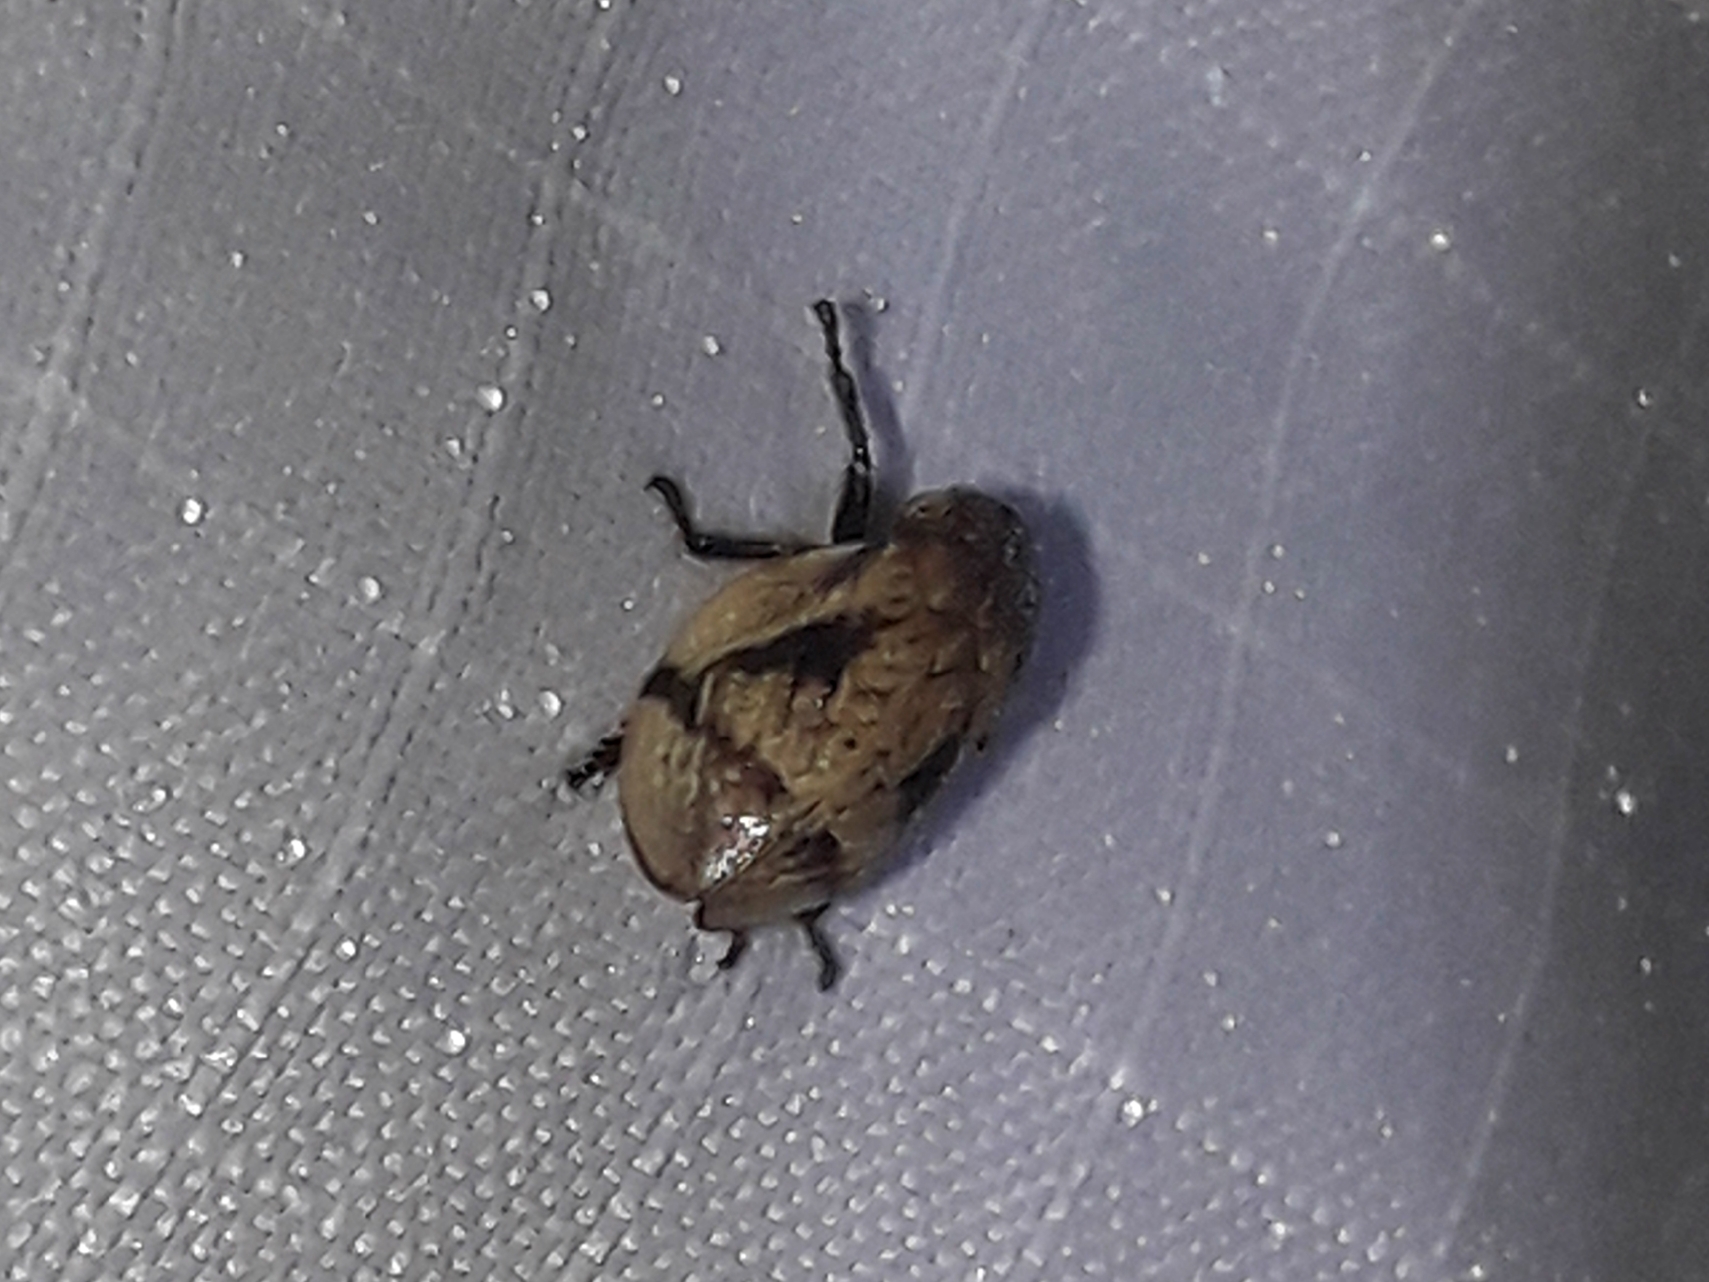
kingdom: Animalia
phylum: Arthropoda
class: Insecta
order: Hemiptera
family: Aphrophoridae
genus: Lepyronia
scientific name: Lepyronia coleoptrata
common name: Leafhopper
